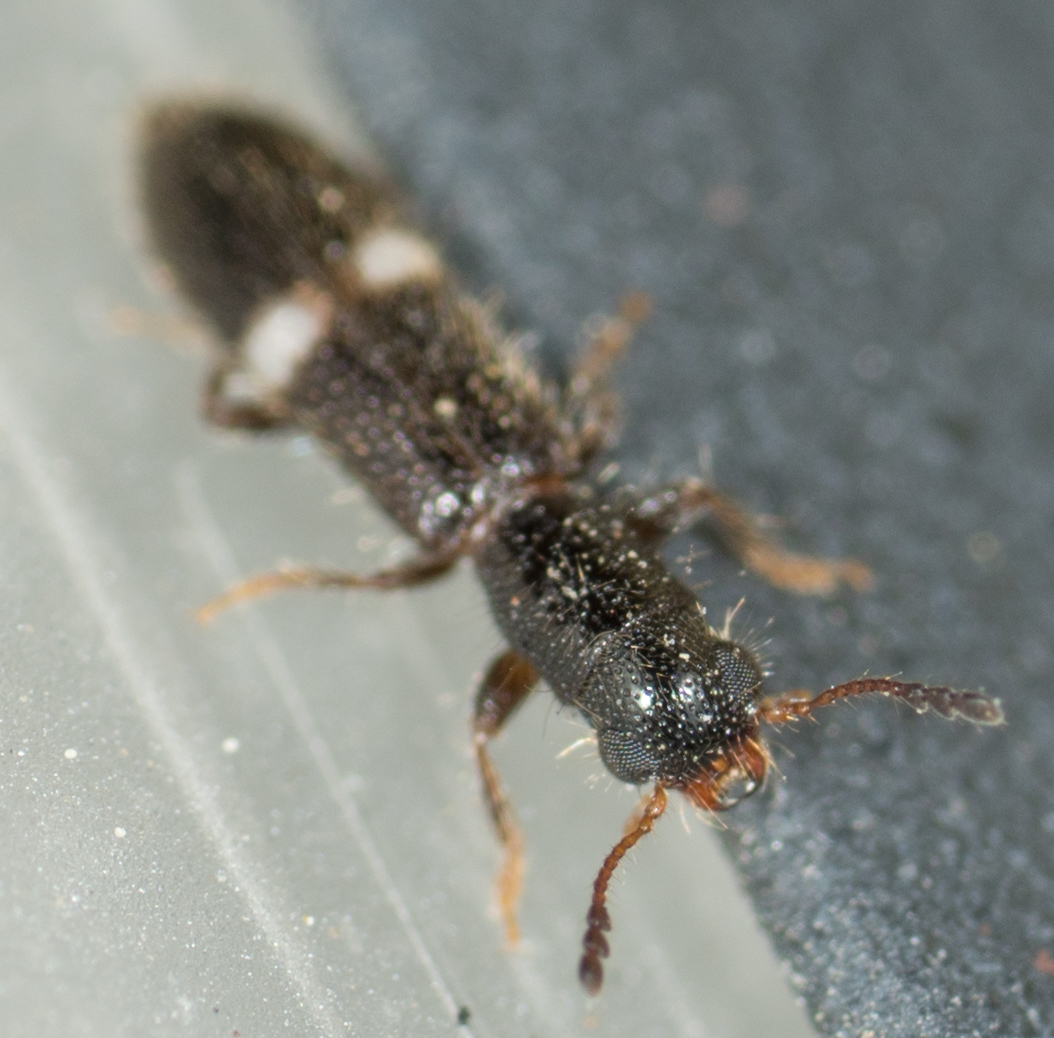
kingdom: Animalia
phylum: Arthropoda
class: Insecta
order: Coleoptera
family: Cleridae
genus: Tarsostenus
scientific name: Tarsostenus univittatus
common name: Powder-post checkered beetle
